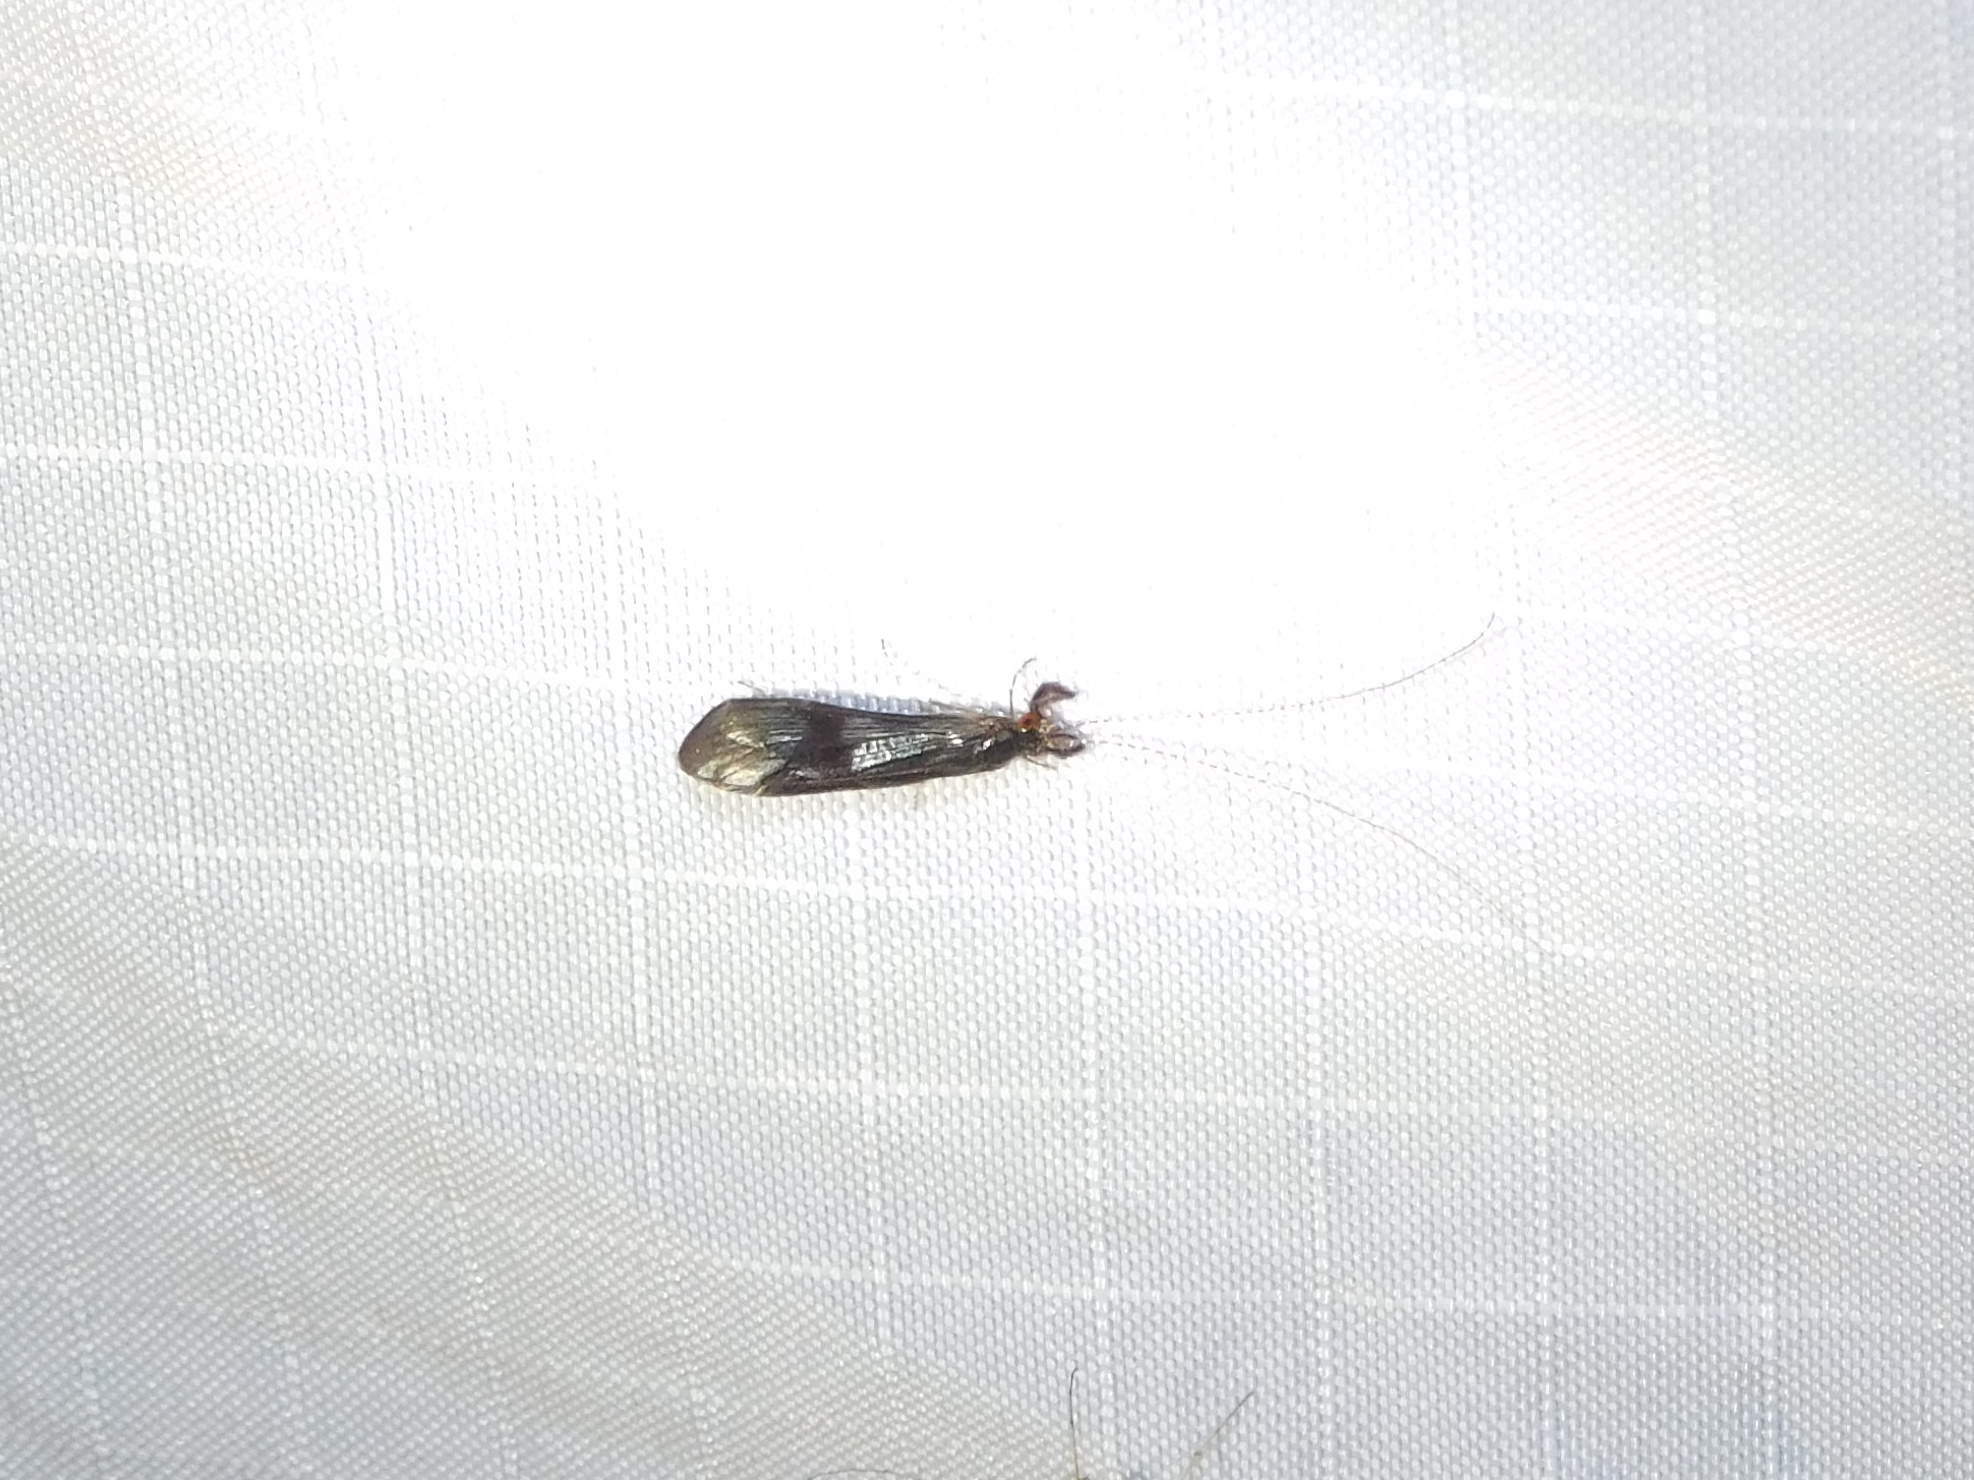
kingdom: Animalia
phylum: Arthropoda
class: Insecta
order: Trichoptera
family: Leptoceridae
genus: Mystacides
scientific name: Mystacides azureus
